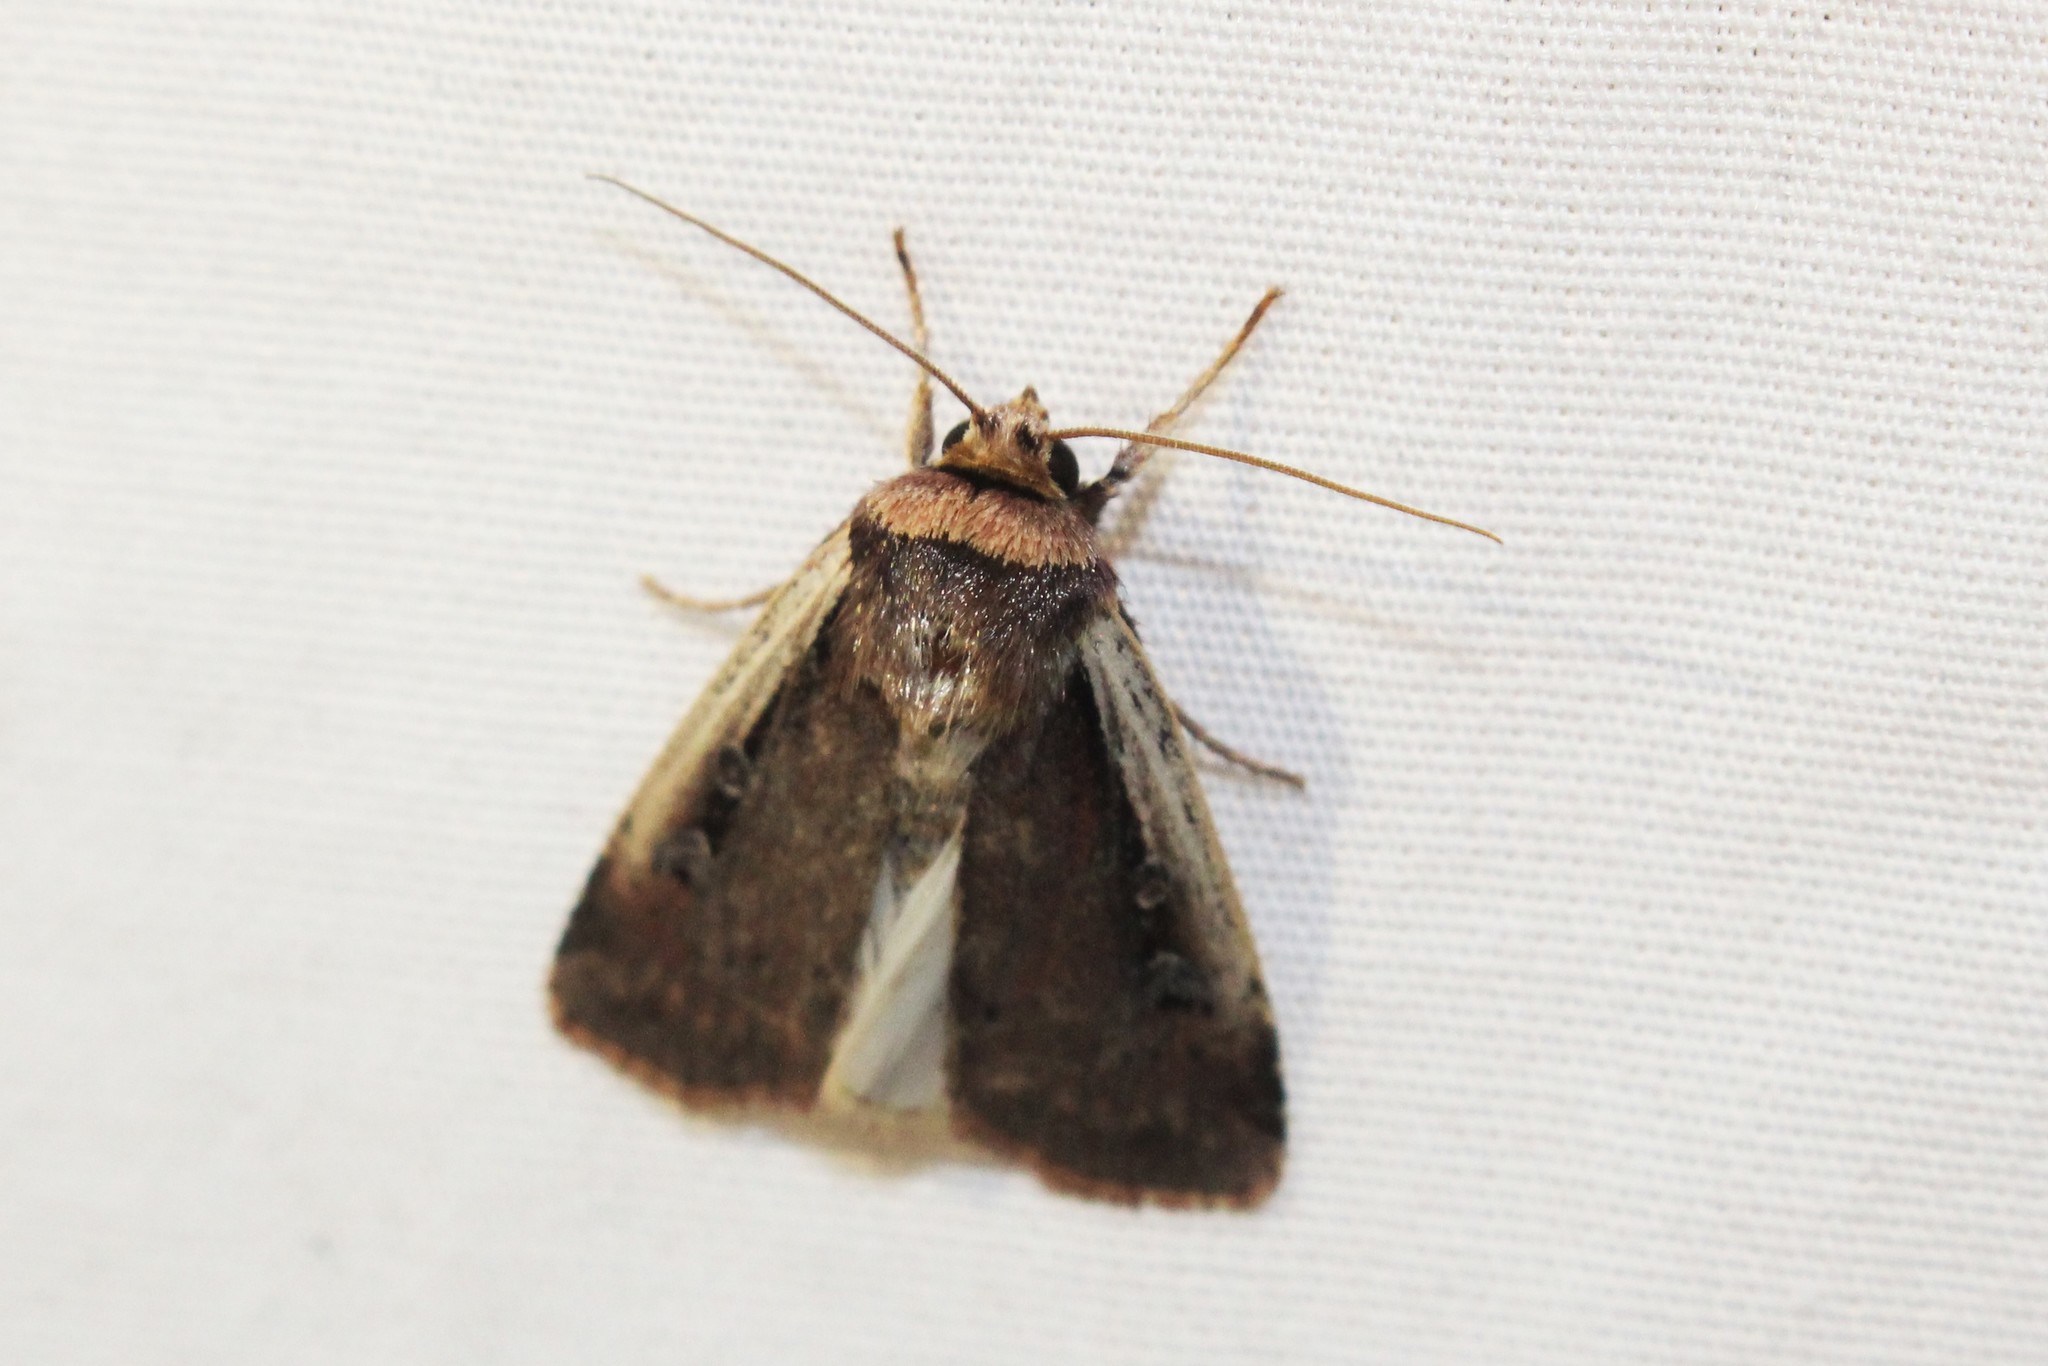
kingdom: Animalia
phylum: Arthropoda
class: Insecta
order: Lepidoptera
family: Noctuidae
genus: Ochropleura
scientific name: Ochropleura implecta
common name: Flame-shouldered dart
